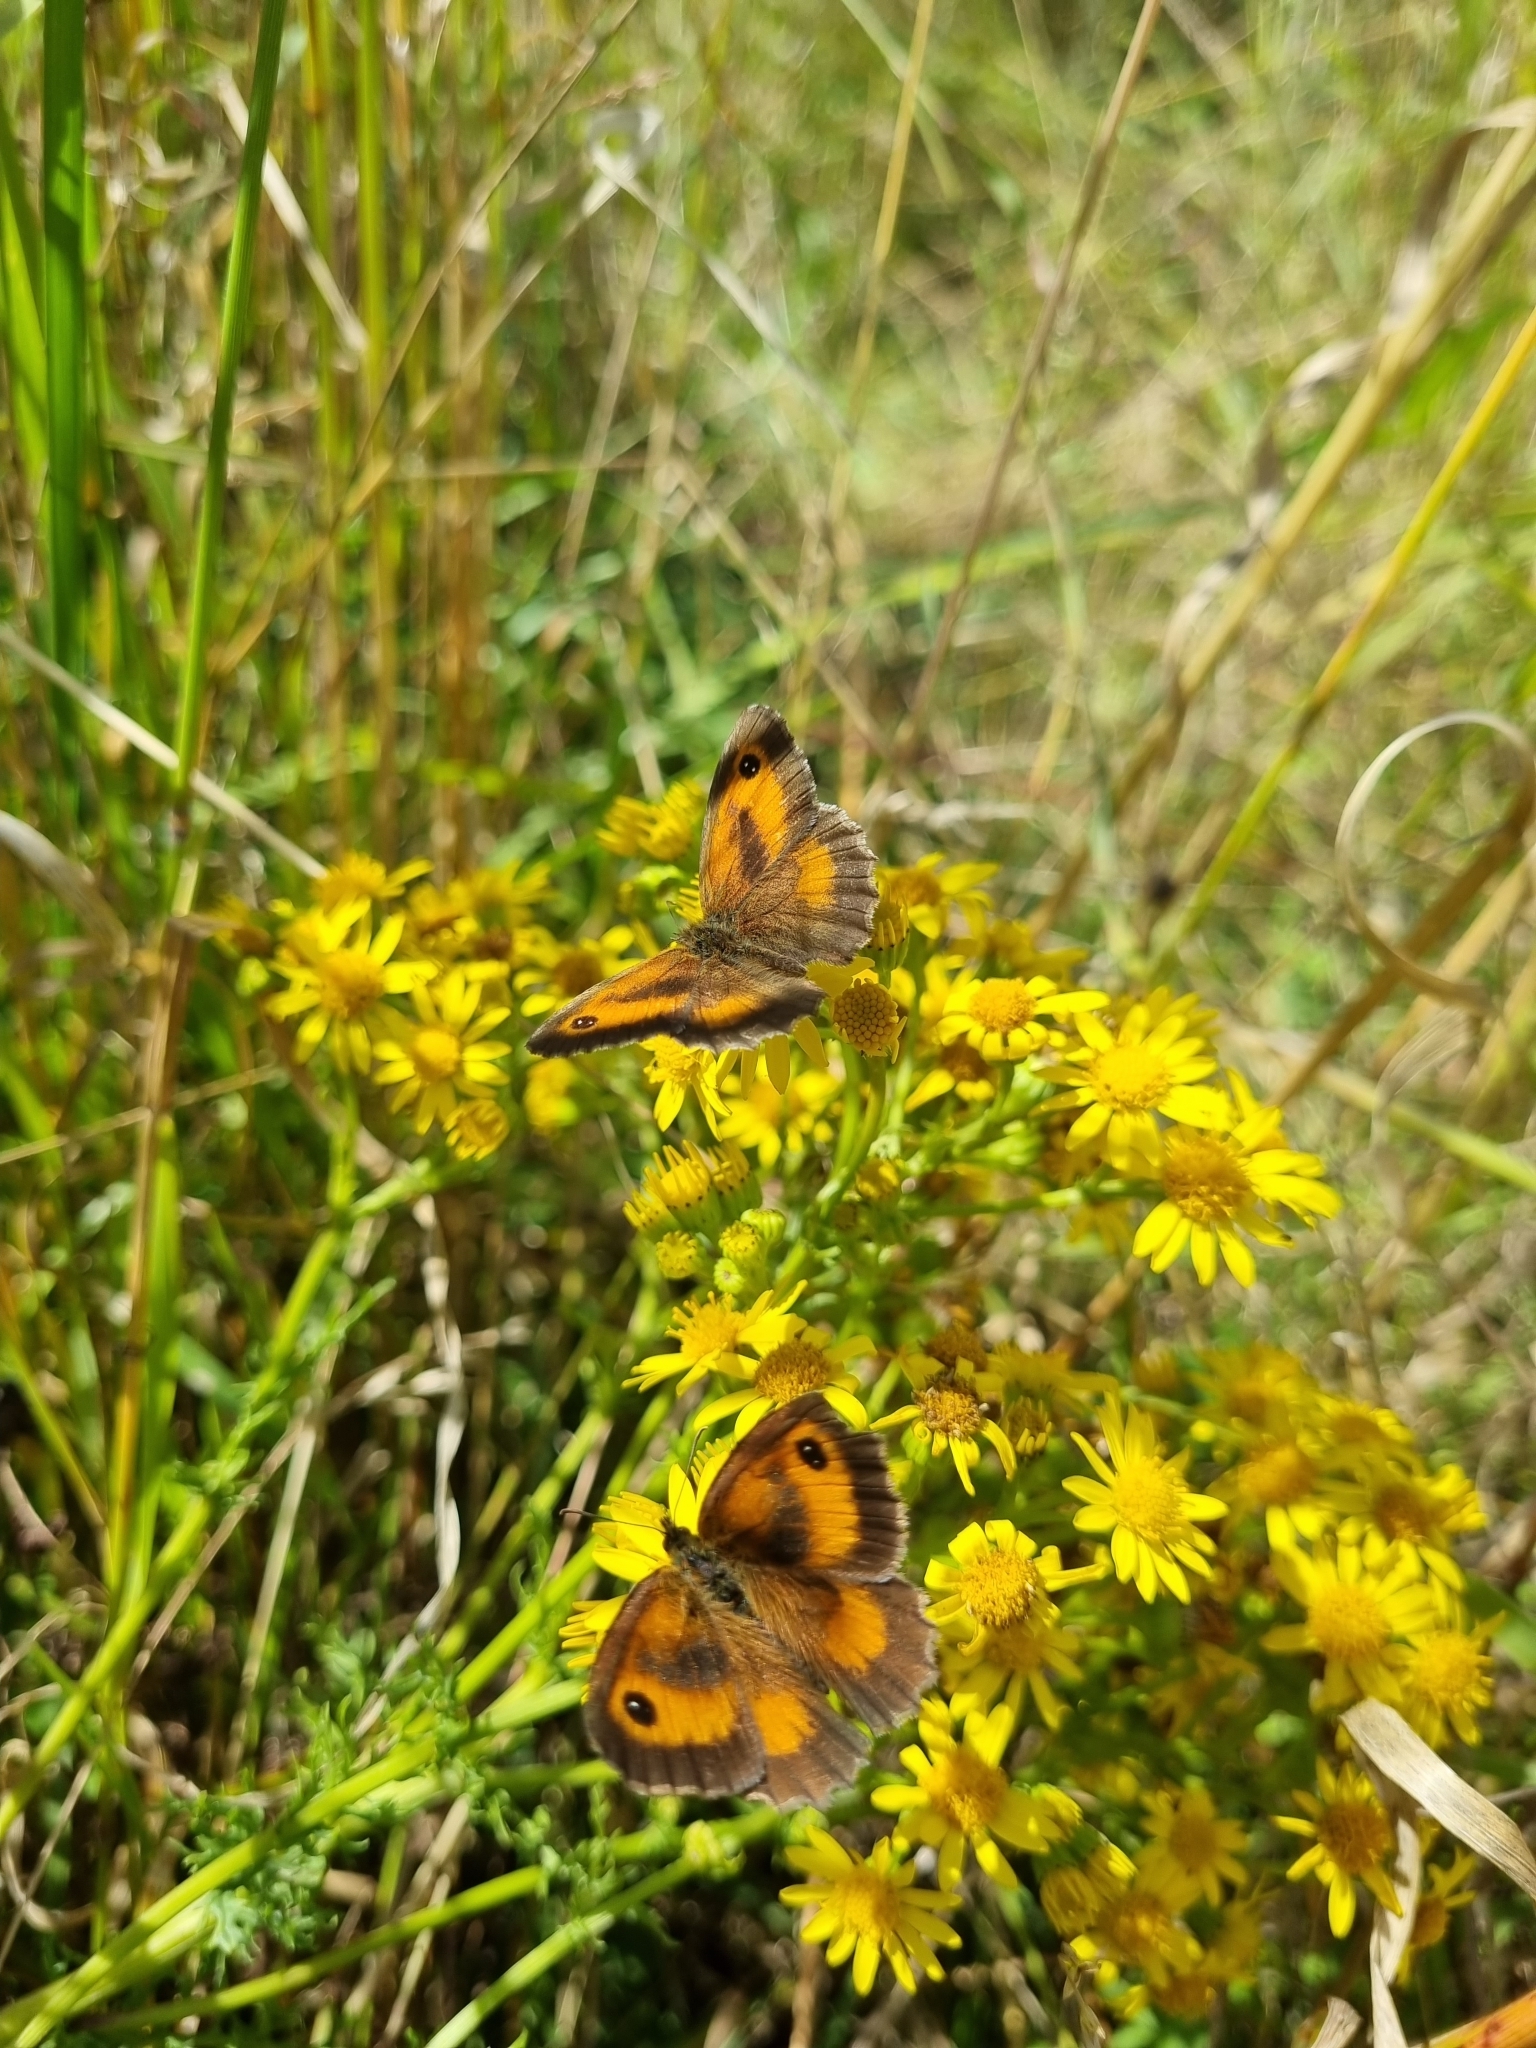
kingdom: Animalia
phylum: Arthropoda
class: Insecta
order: Lepidoptera
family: Nymphalidae
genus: Pyronia
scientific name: Pyronia tithonus
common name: Gatekeeper
